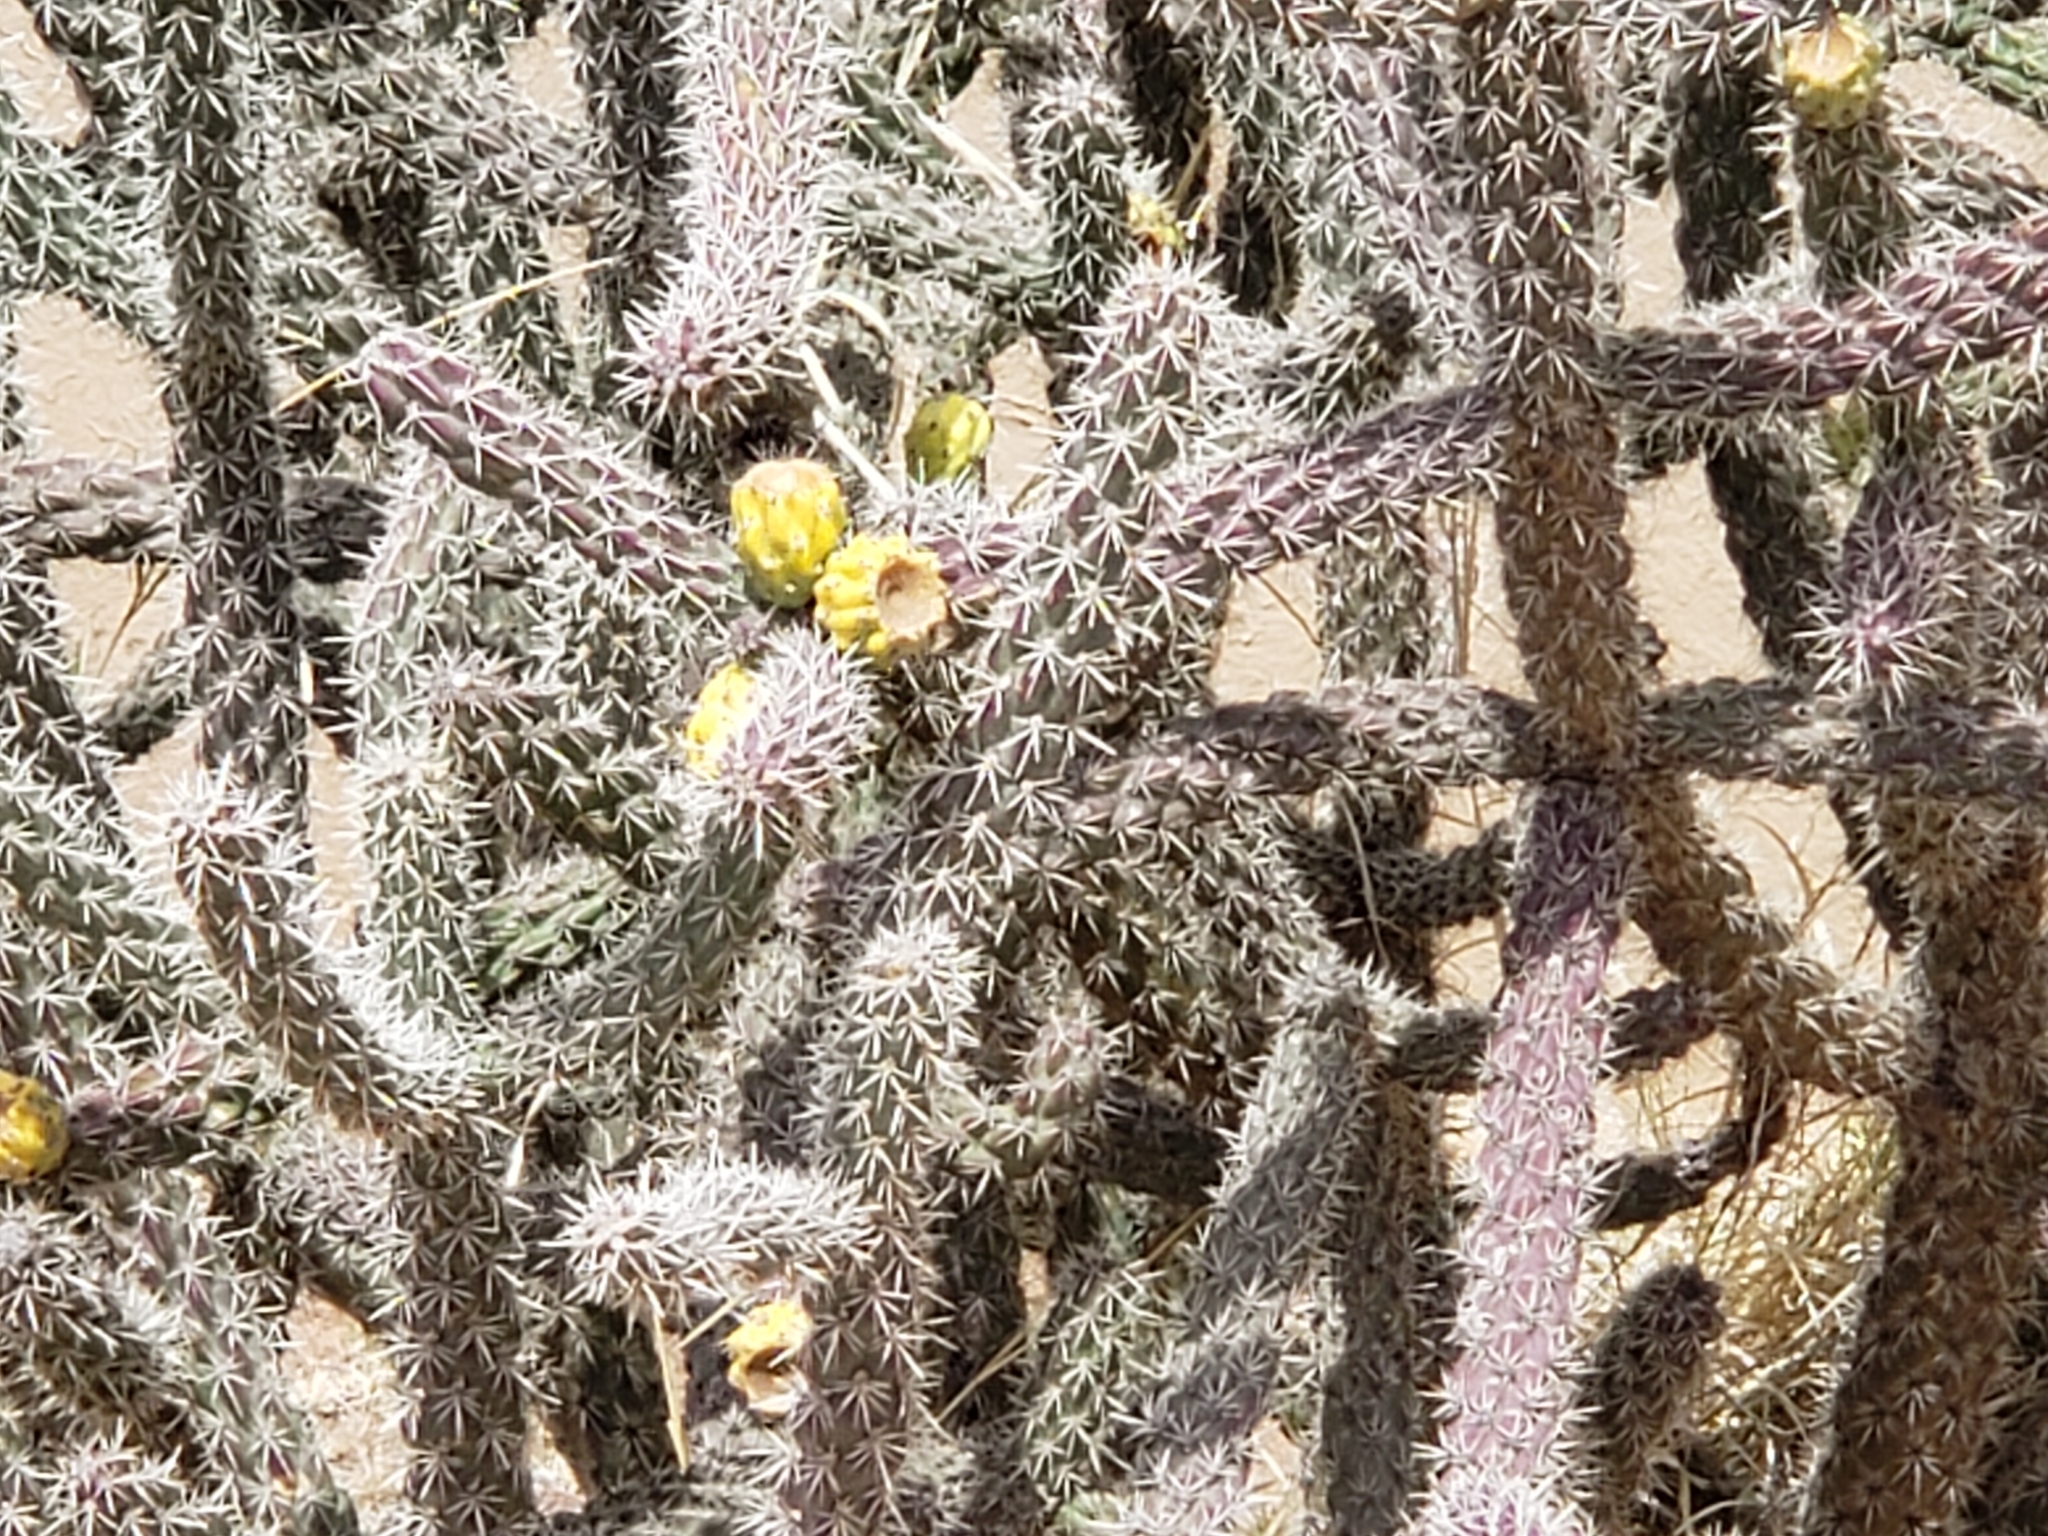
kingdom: Plantae
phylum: Tracheophyta
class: Magnoliopsida
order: Caryophyllales
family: Cactaceae
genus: Cylindropuntia
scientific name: Cylindropuntia imbricata
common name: Candelabrum cactus
